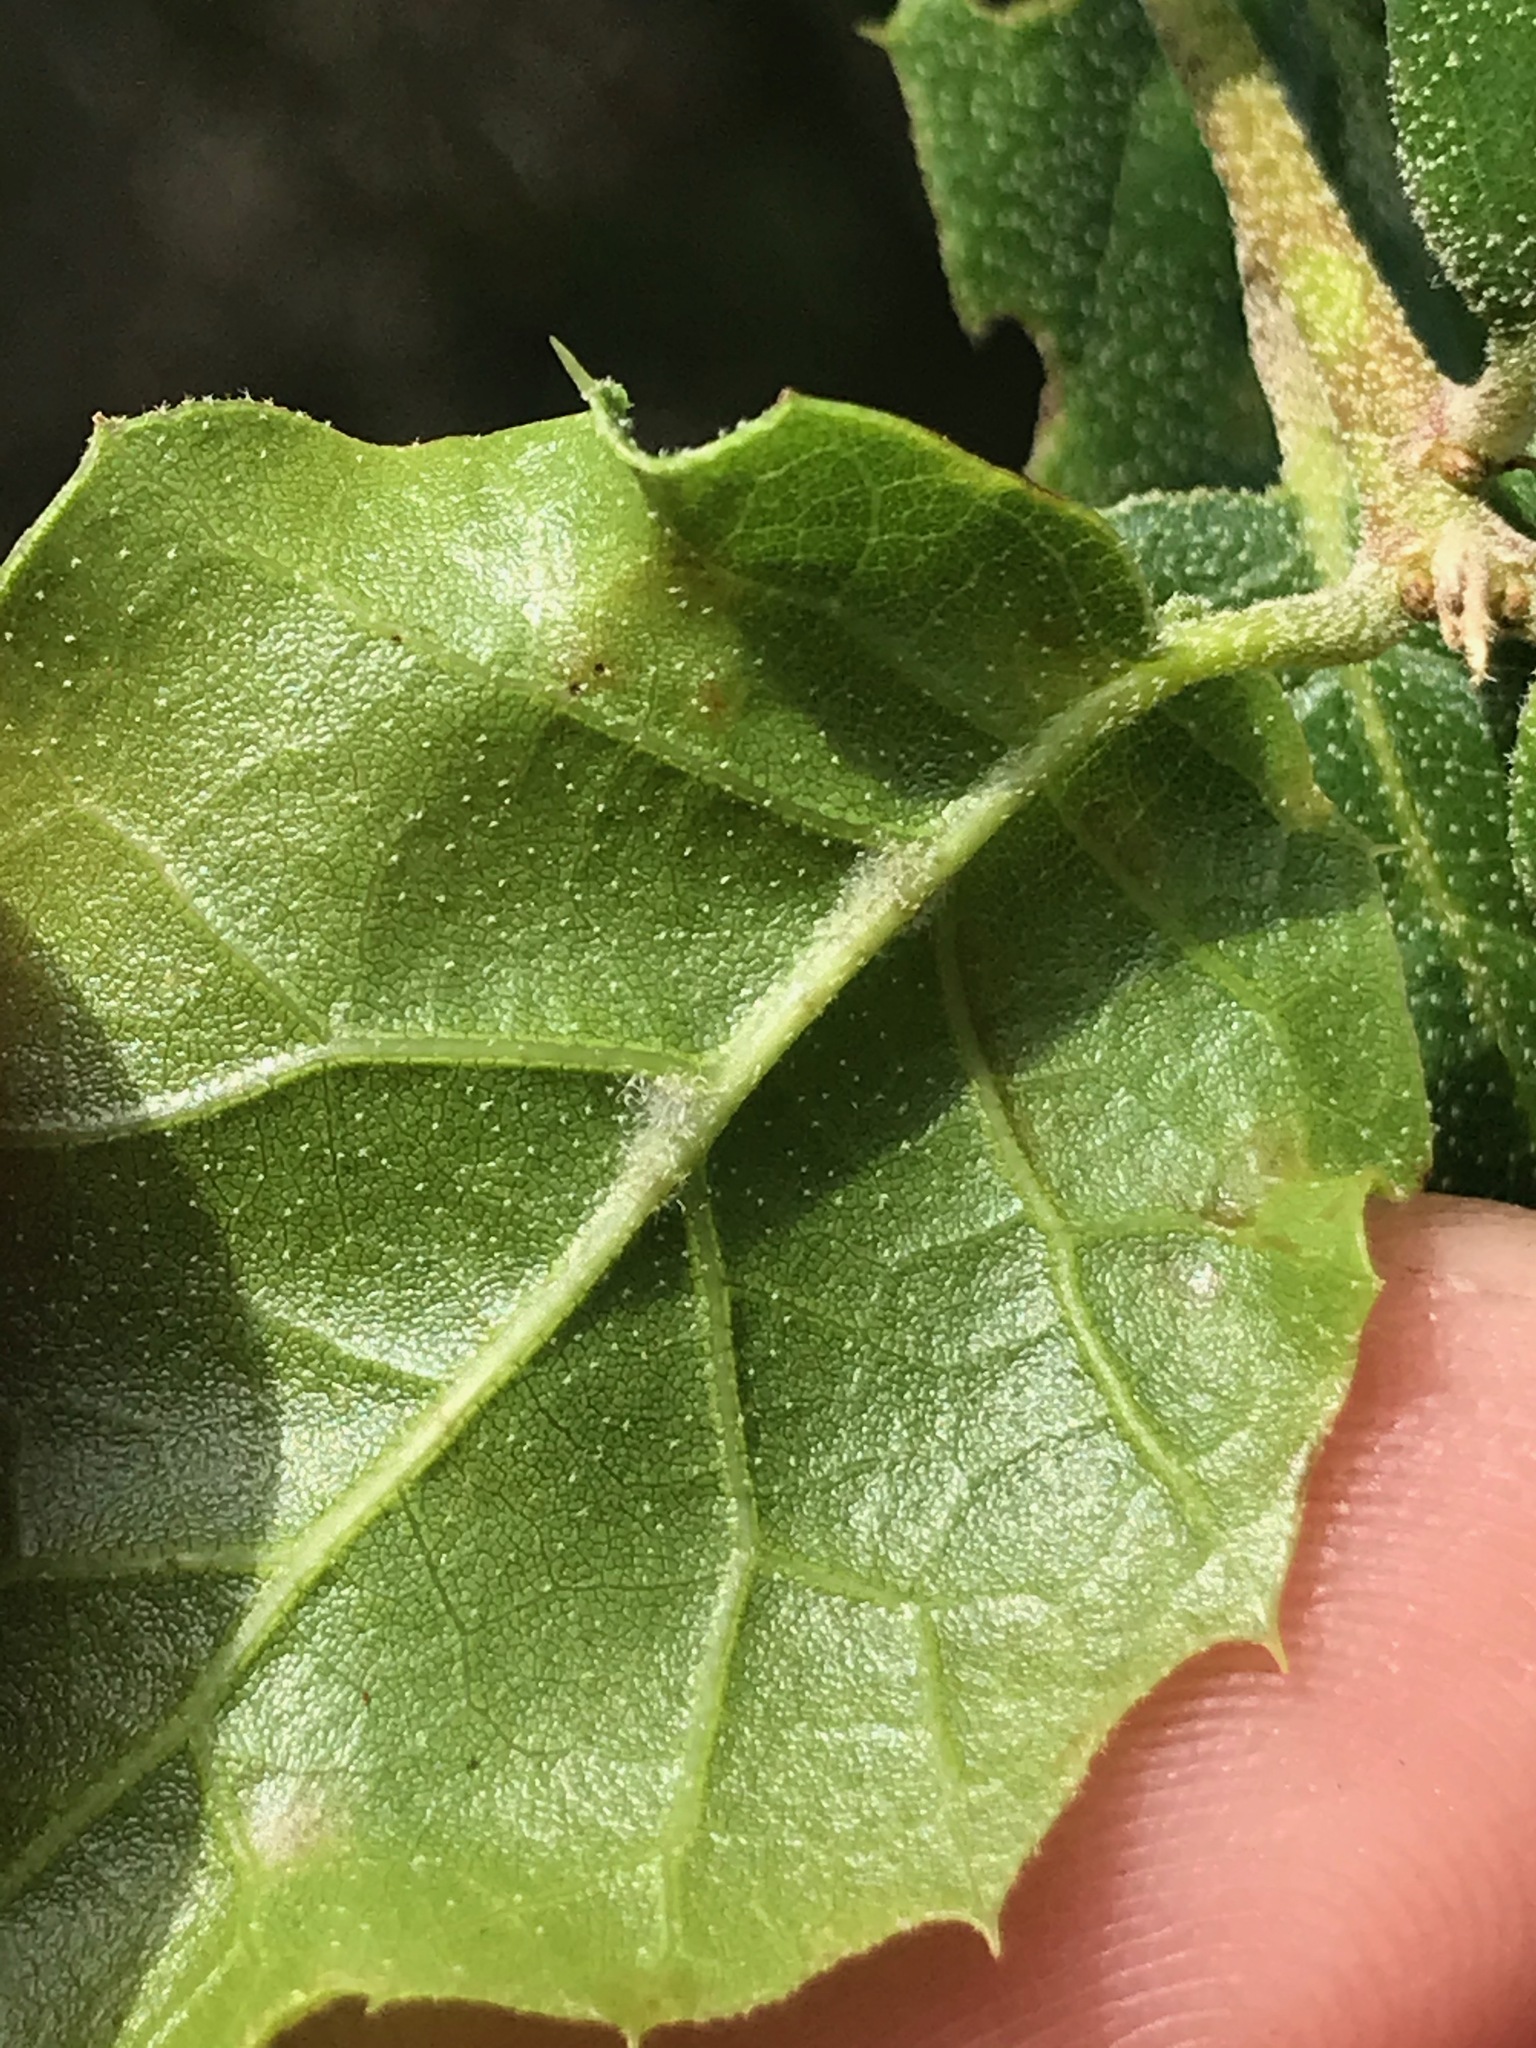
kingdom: Plantae
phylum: Tracheophyta
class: Magnoliopsida
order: Fagales
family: Fagaceae
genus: Quercus
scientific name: Quercus agrifolia
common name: California live oak
